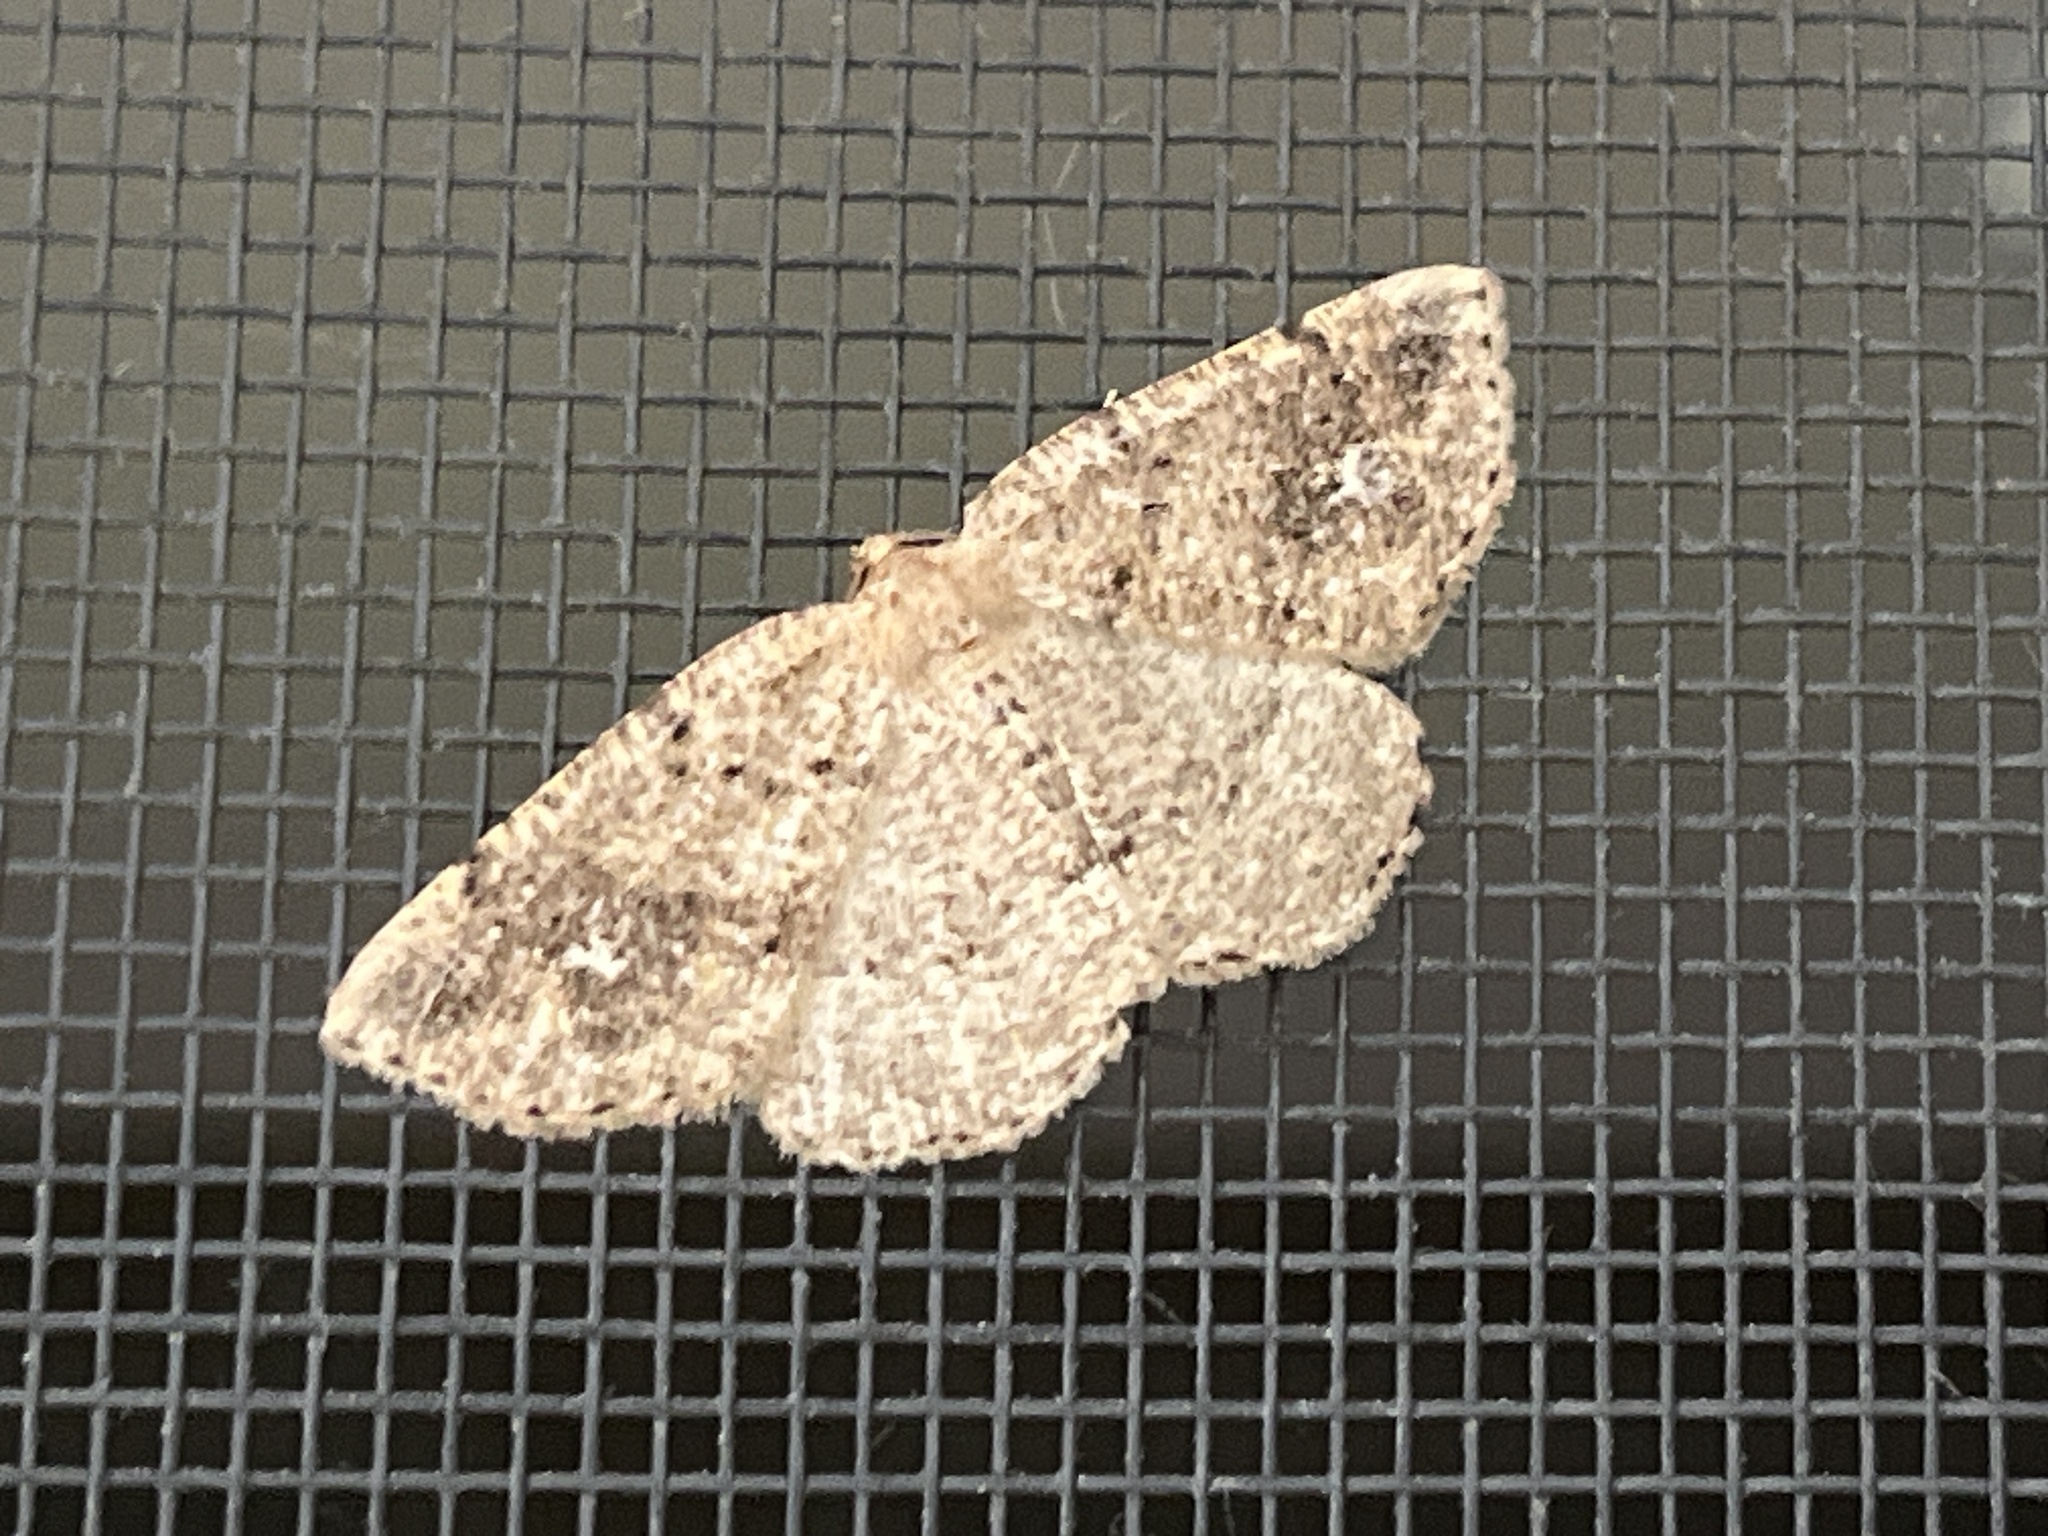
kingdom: Animalia
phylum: Arthropoda
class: Insecta
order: Lepidoptera
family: Geometridae
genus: Homochlodes
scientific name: Homochlodes fritillaria
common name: Pale homochlodes
